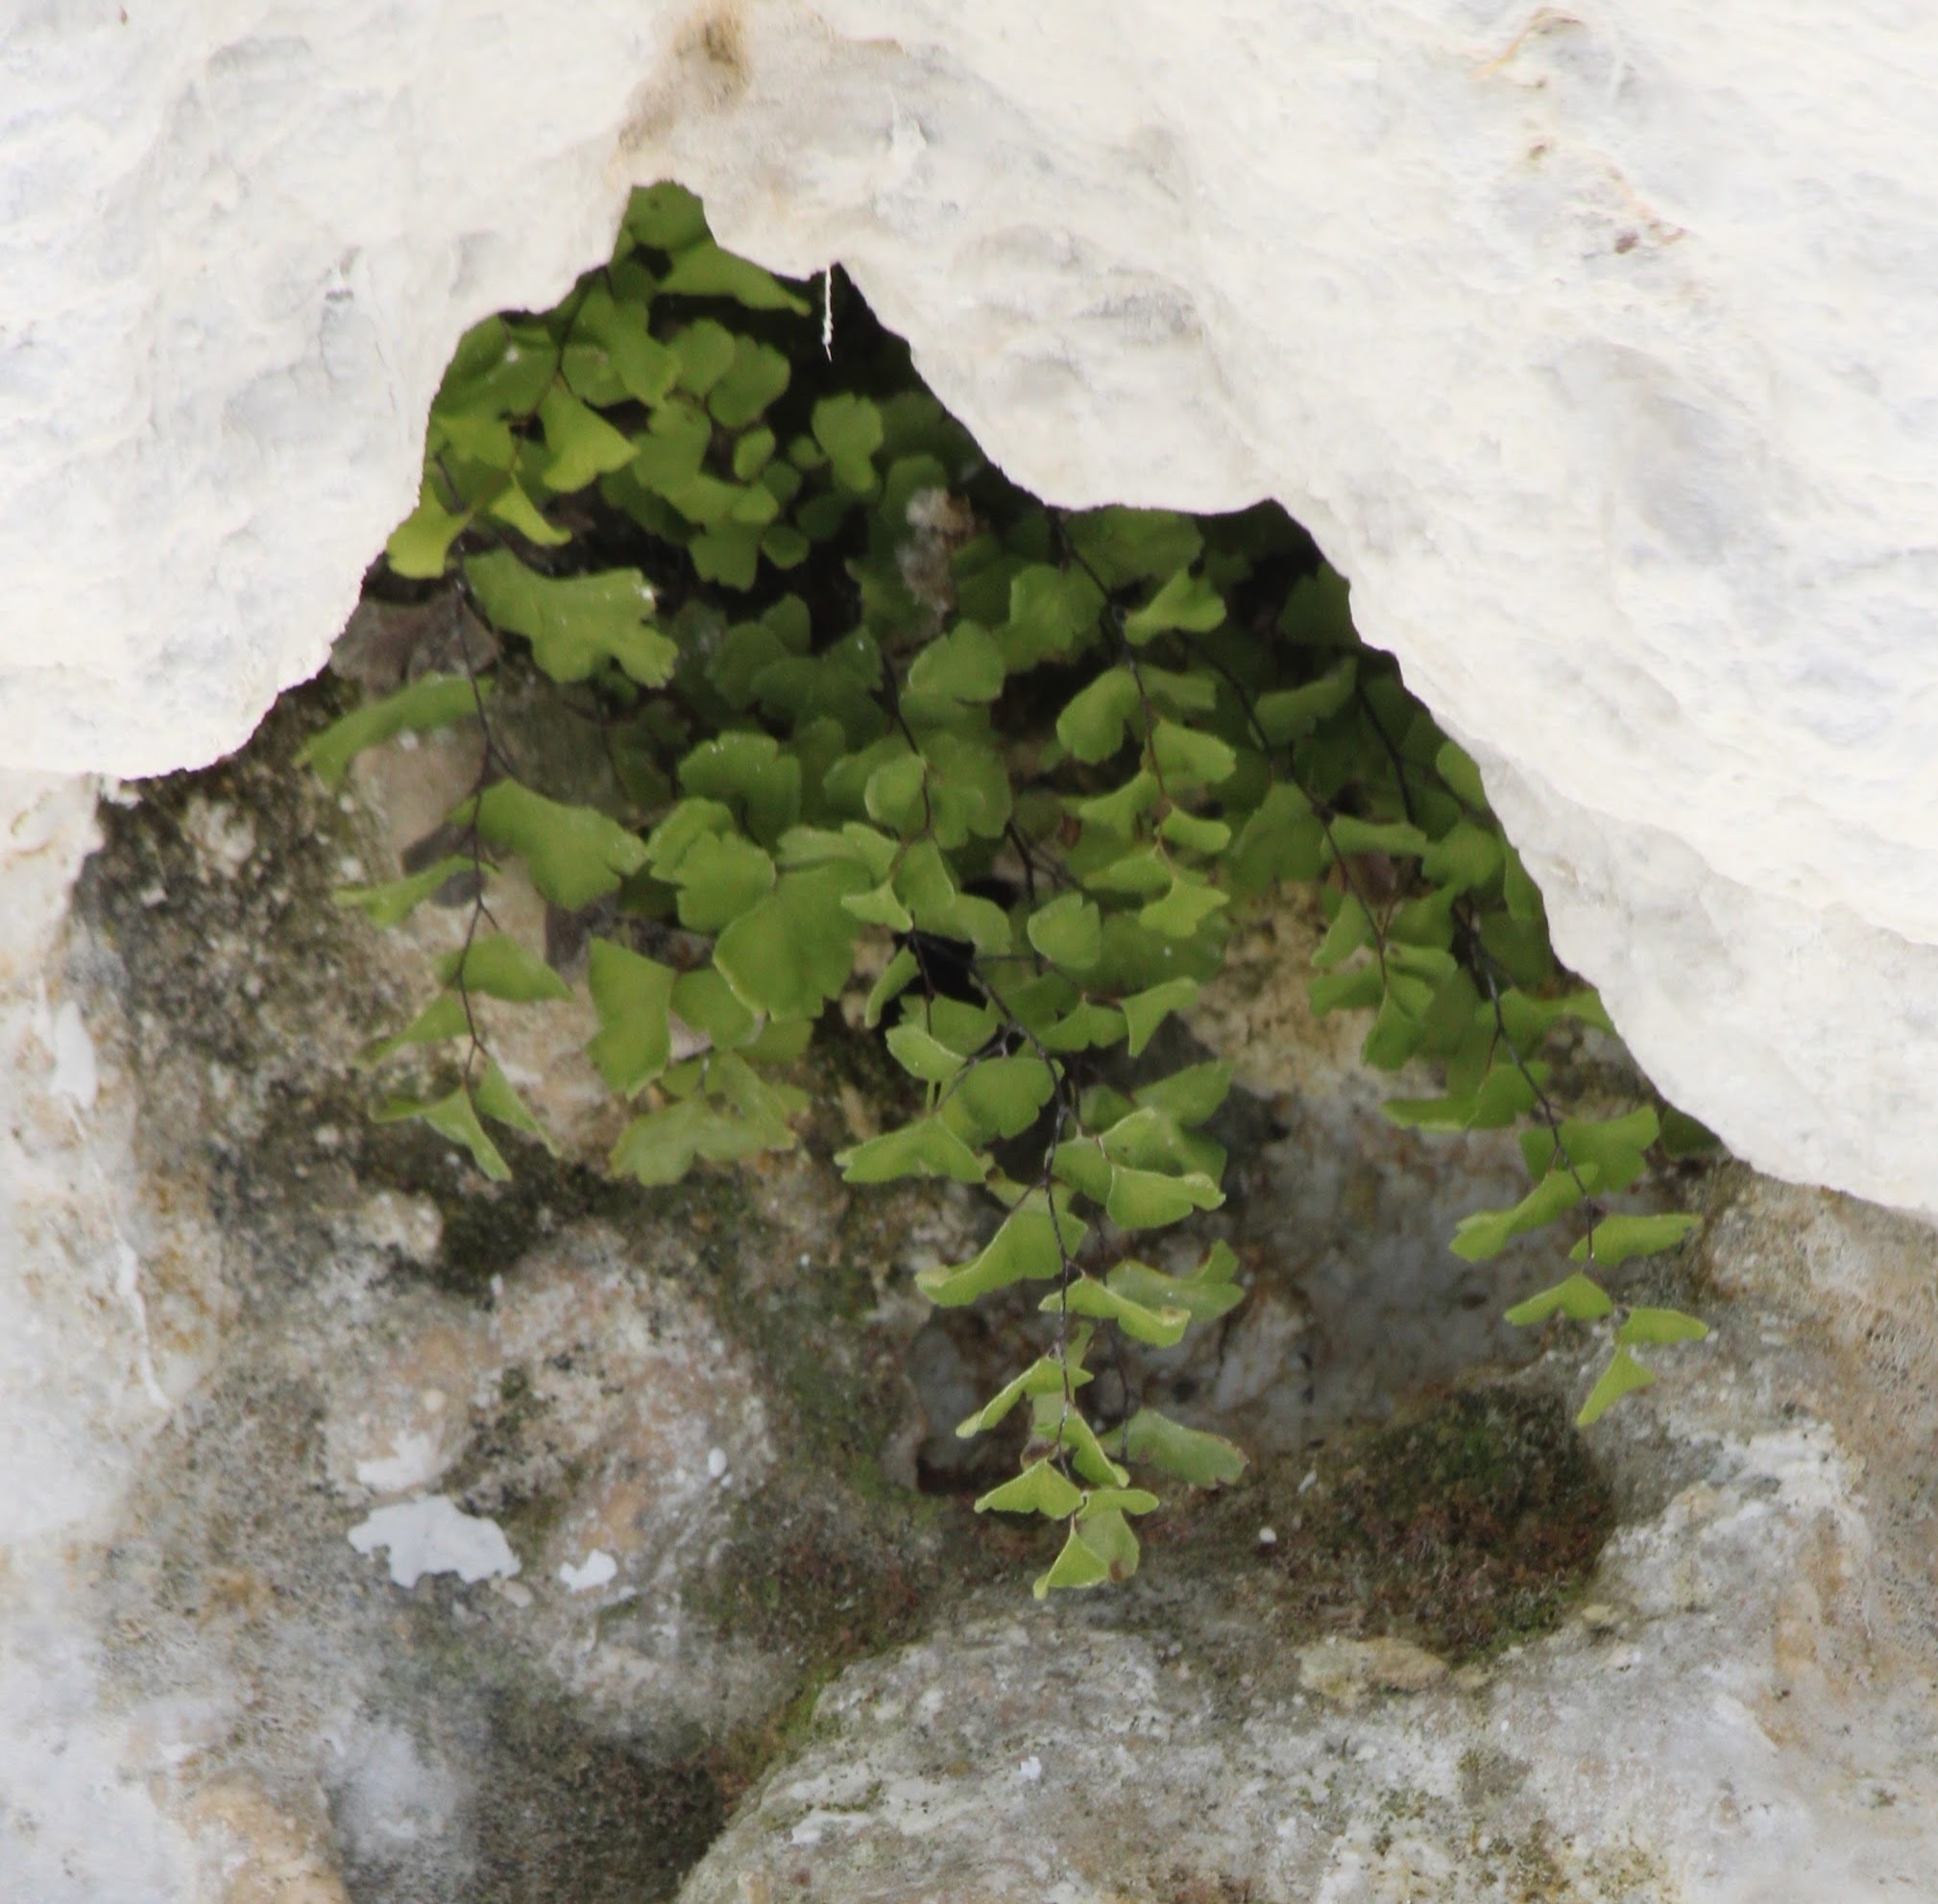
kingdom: Plantae
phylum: Tracheophyta
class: Polypodiopsida
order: Polypodiales
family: Pteridaceae
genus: Adiantum
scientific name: Adiantum capillus-veneris
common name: Maidenhair fern
